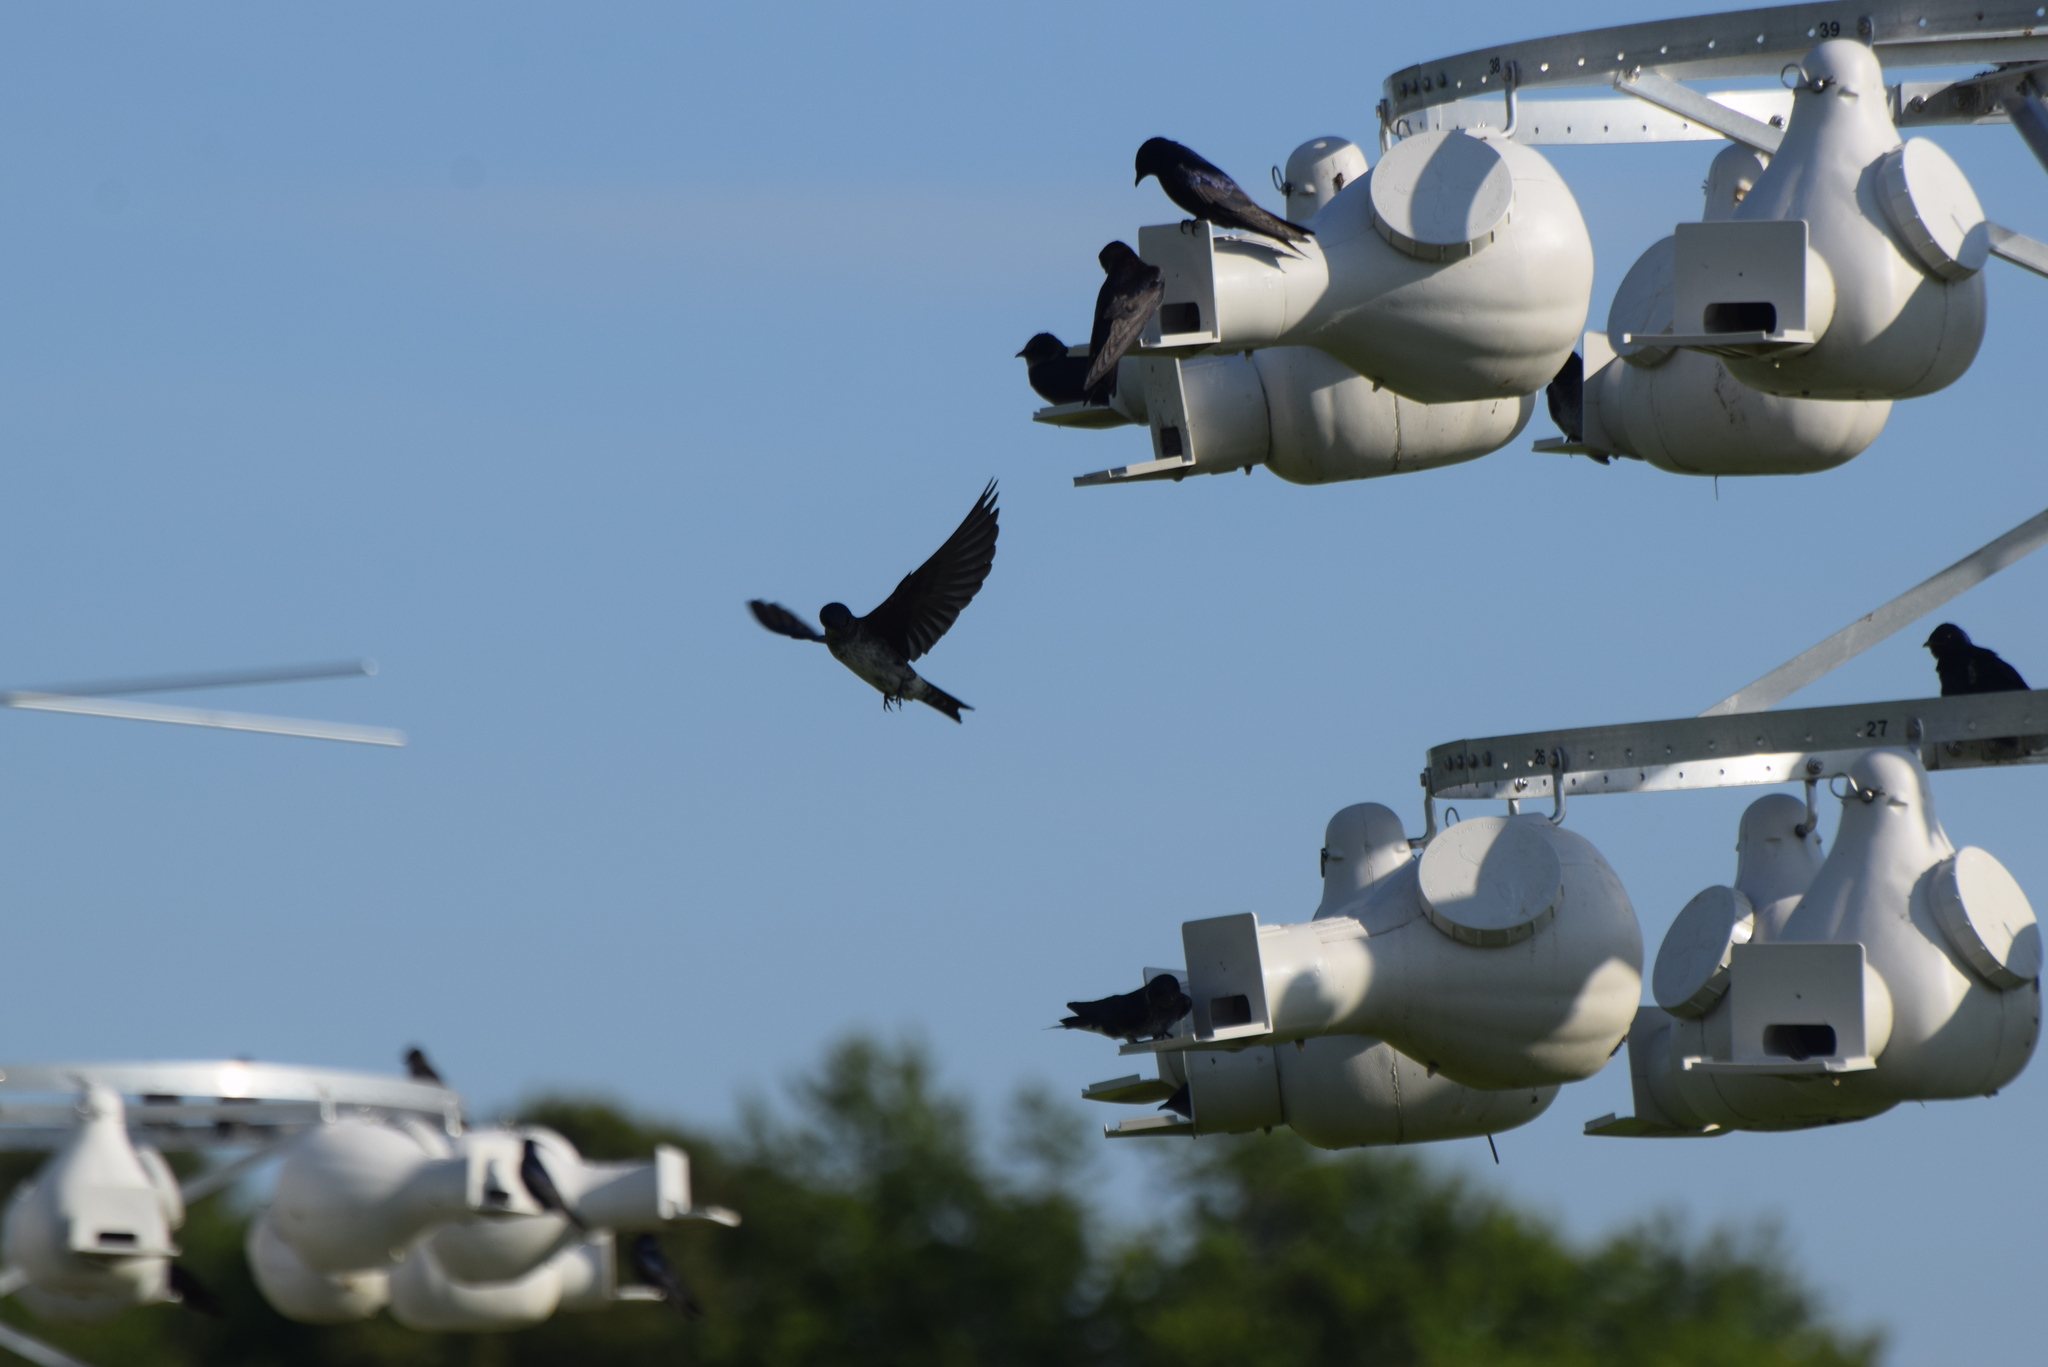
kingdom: Animalia
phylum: Chordata
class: Aves
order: Passeriformes
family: Hirundinidae
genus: Progne
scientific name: Progne subis
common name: Purple martin
